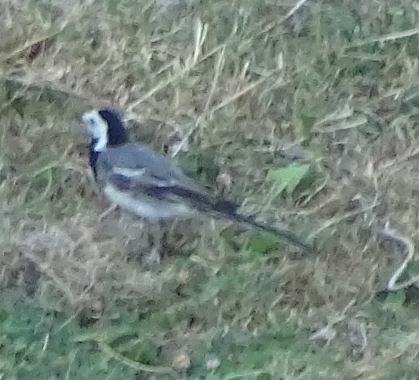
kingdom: Animalia
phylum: Chordata
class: Aves
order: Passeriformes
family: Motacillidae
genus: Motacilla
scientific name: Motacilla alba
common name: White wagtail
